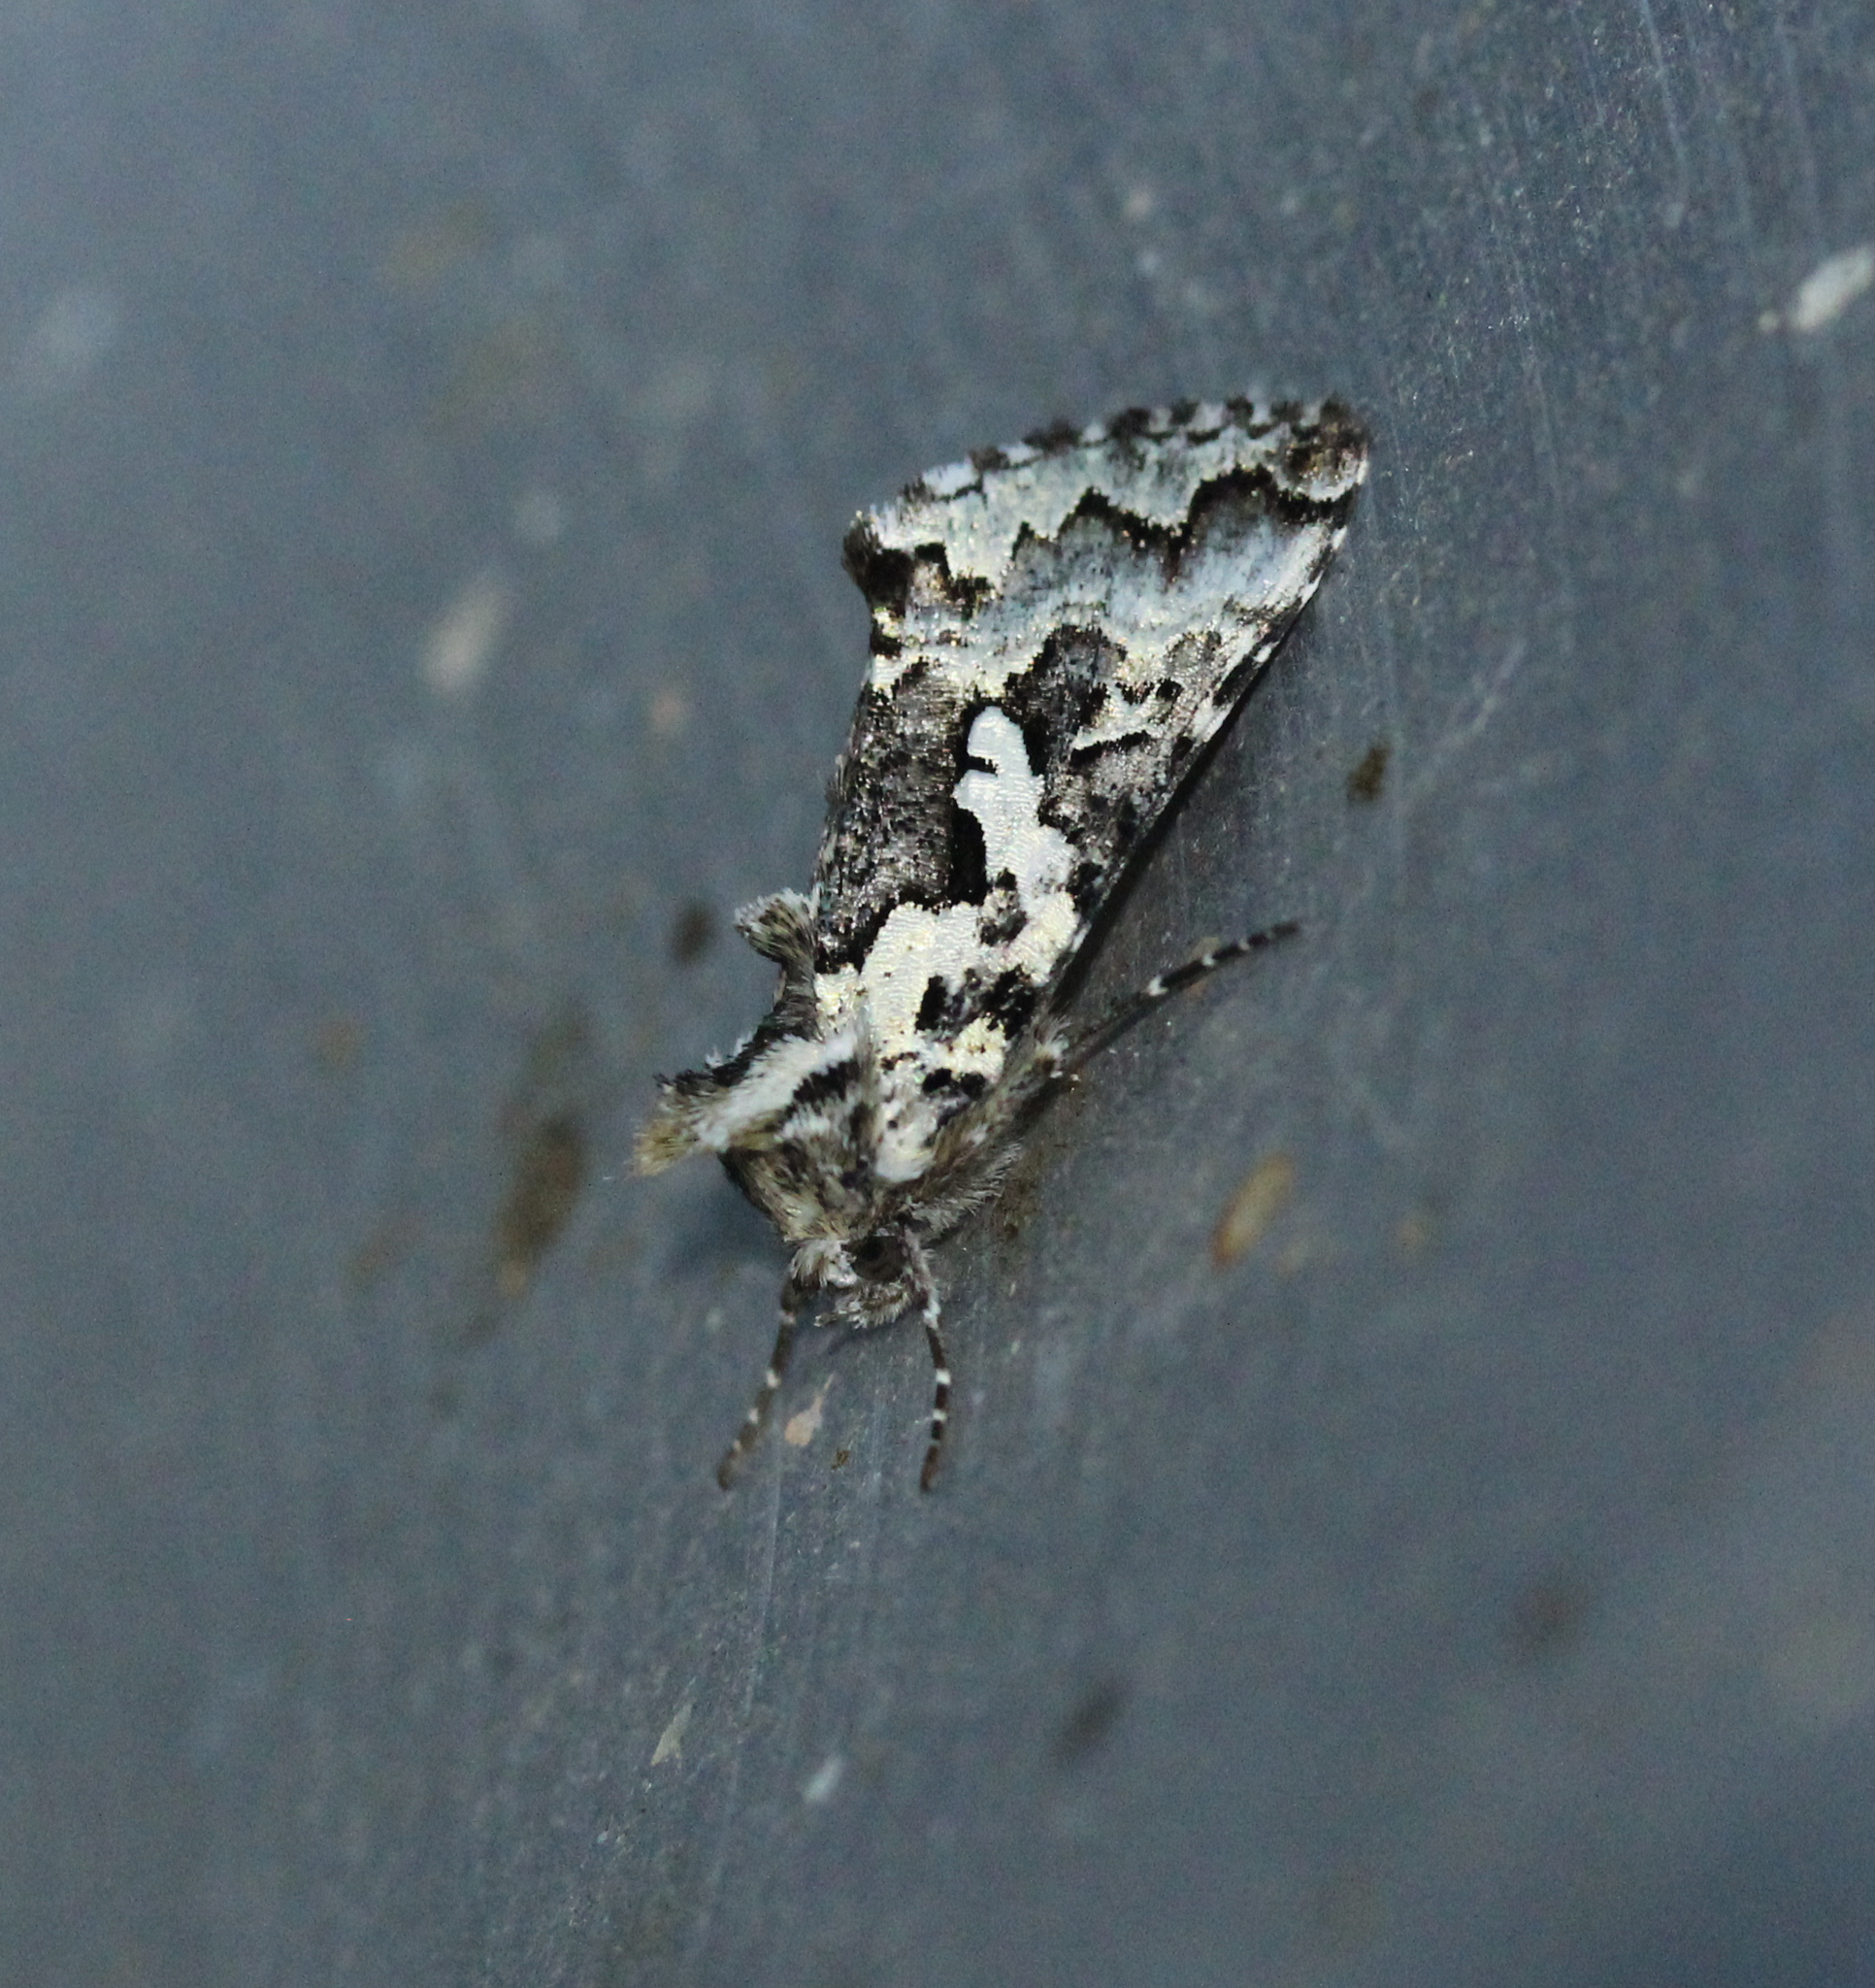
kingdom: Animalia
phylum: Arthropoda
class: Insecta
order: Lepidoptera
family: Noctuidae
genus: Syngrapha
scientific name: Syngrapha rectangula
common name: Angulated cutworm
